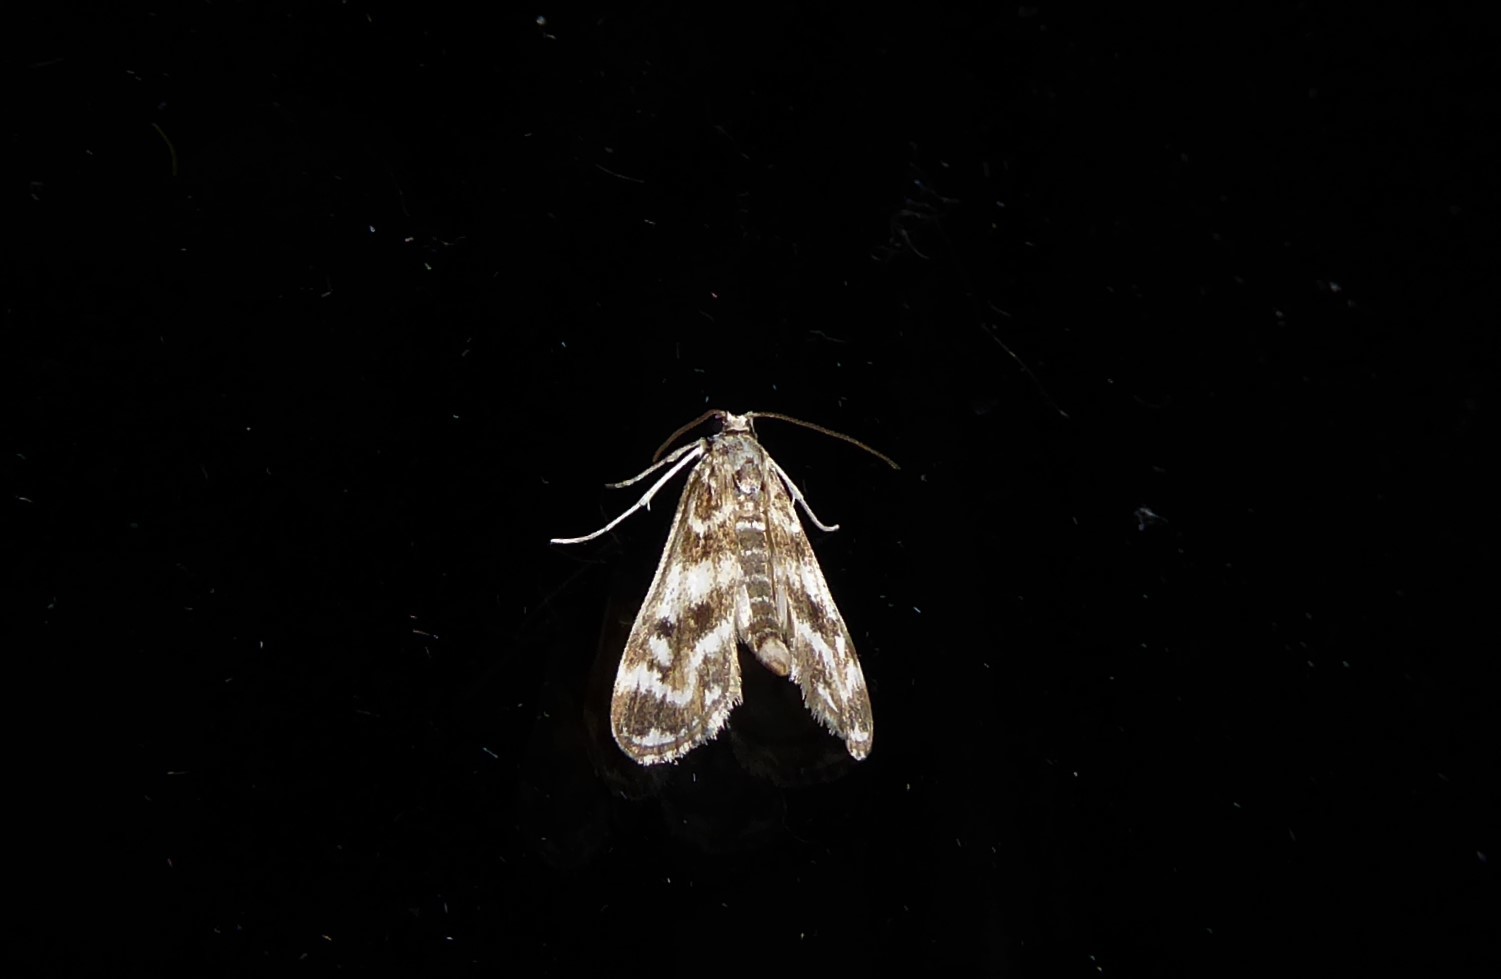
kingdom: Animalia
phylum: Arthropoda
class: Insecta
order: Lepidoptera
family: Crambidae
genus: Hygraula
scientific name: Hygraula nitens
